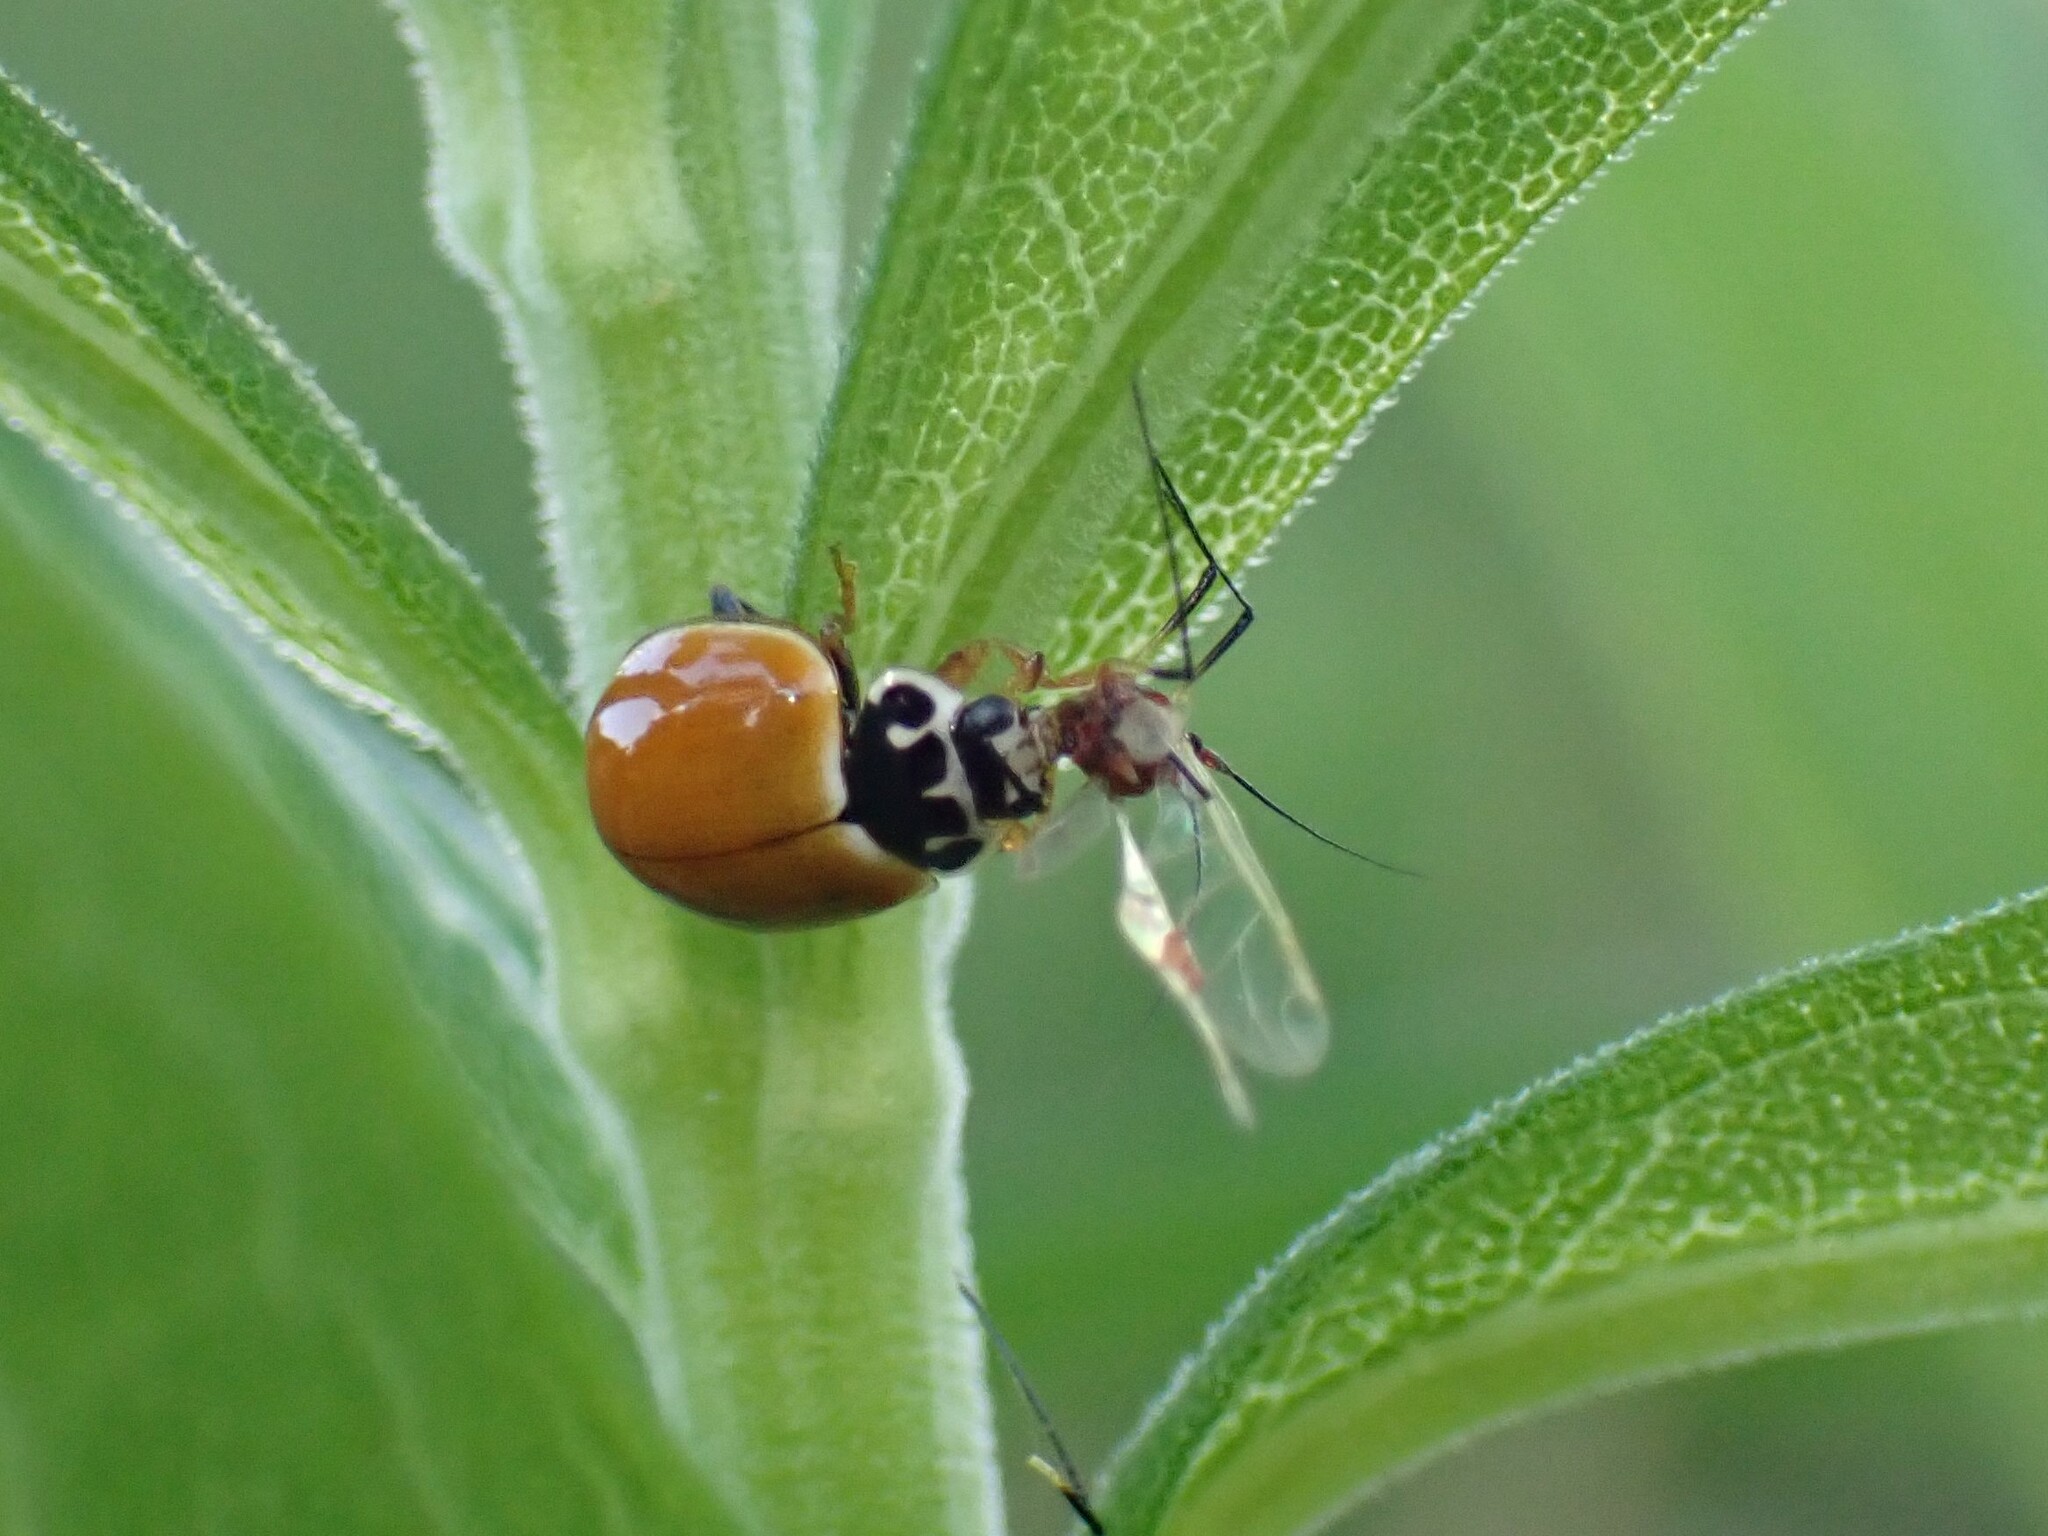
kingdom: Animalia
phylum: Arthropoda
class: Insecta
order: Coleoptera
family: Coccinellidae
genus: Cycloneda
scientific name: Cycloneda munda
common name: Polished lady beetle
